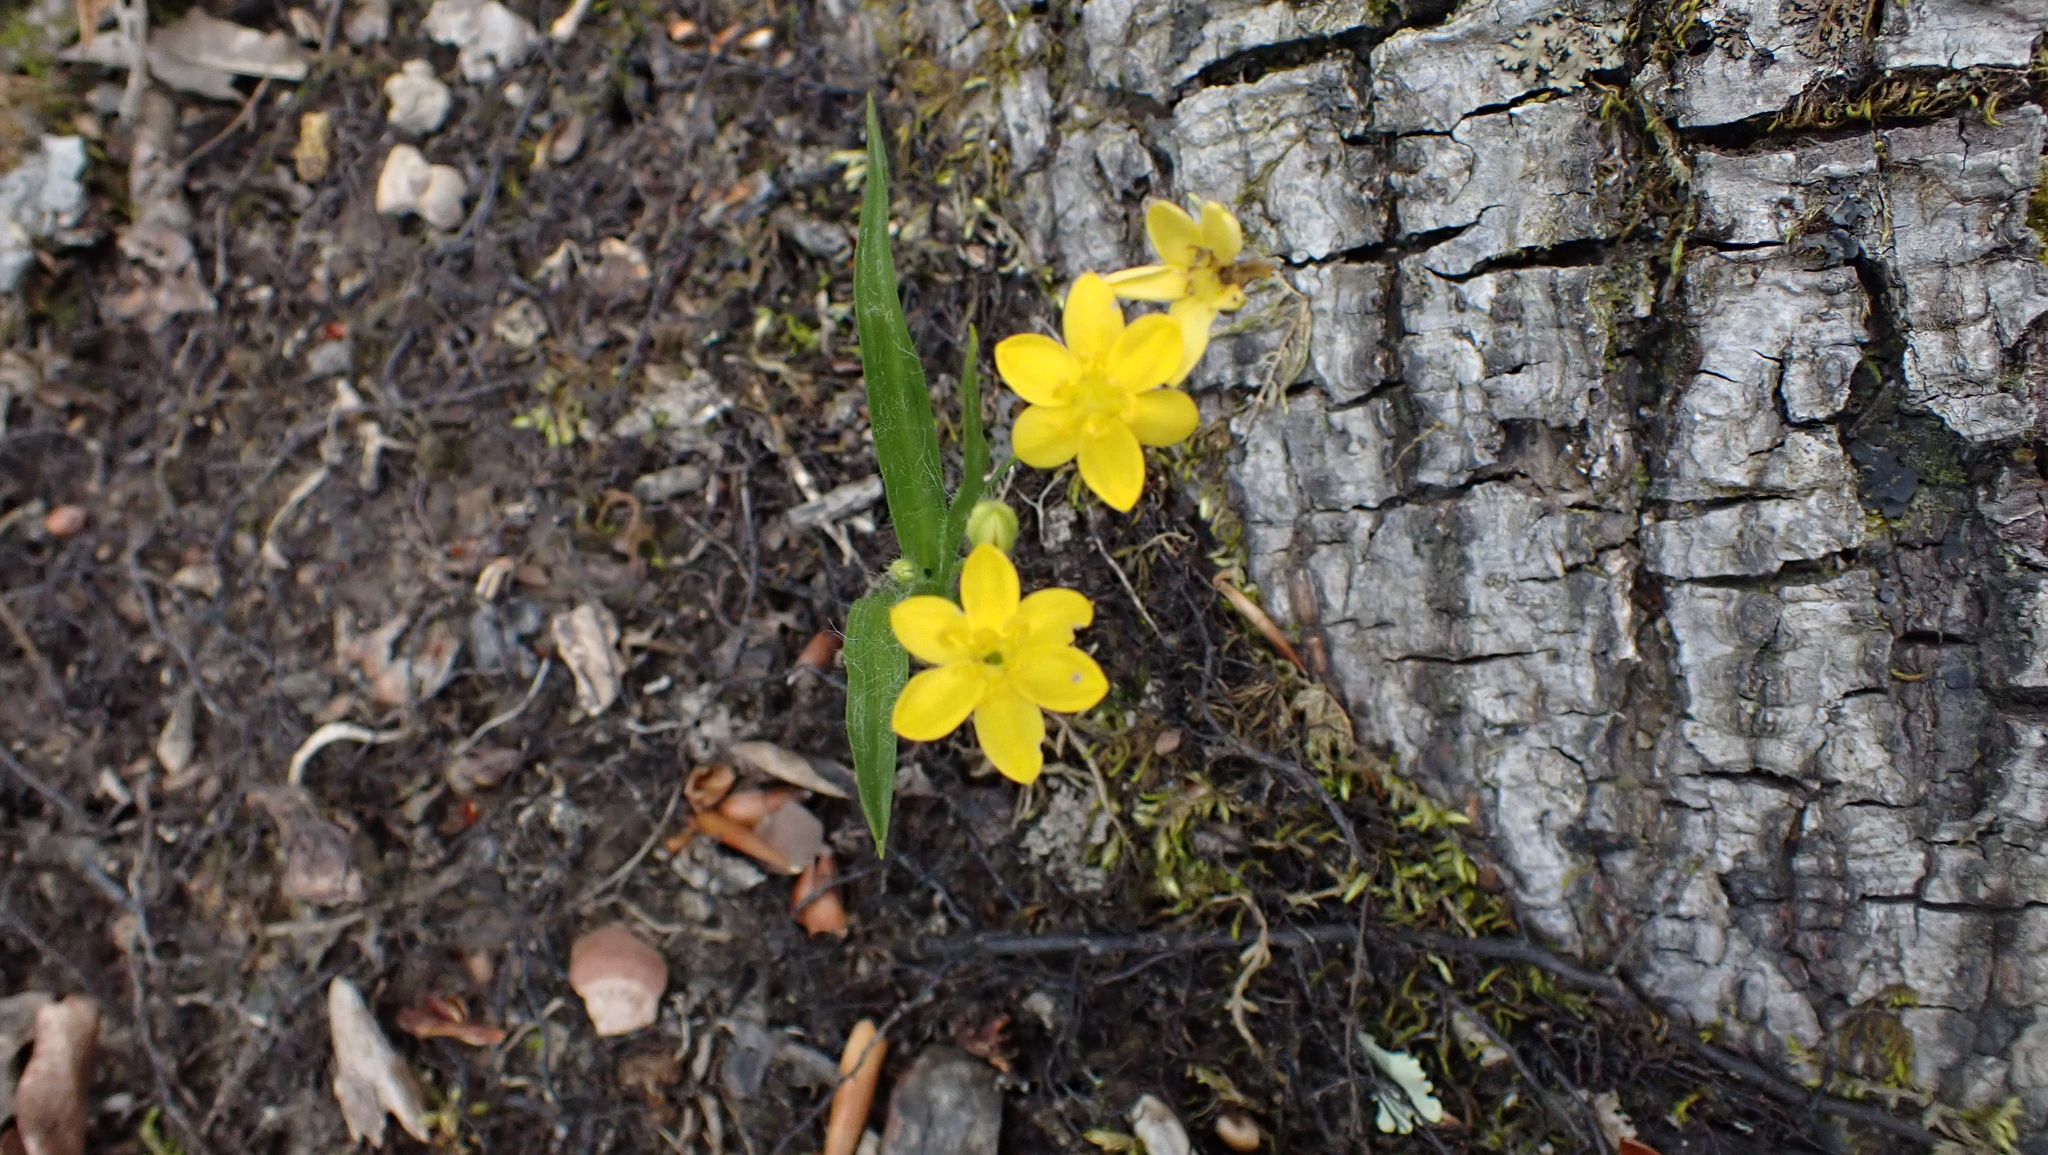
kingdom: Plantae
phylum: Tracheophyta
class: Liliopsida
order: Asparagales
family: Hypoxidaceae
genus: Hypoxis
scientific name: Hypoxis hirsuta
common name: Common goldstar
